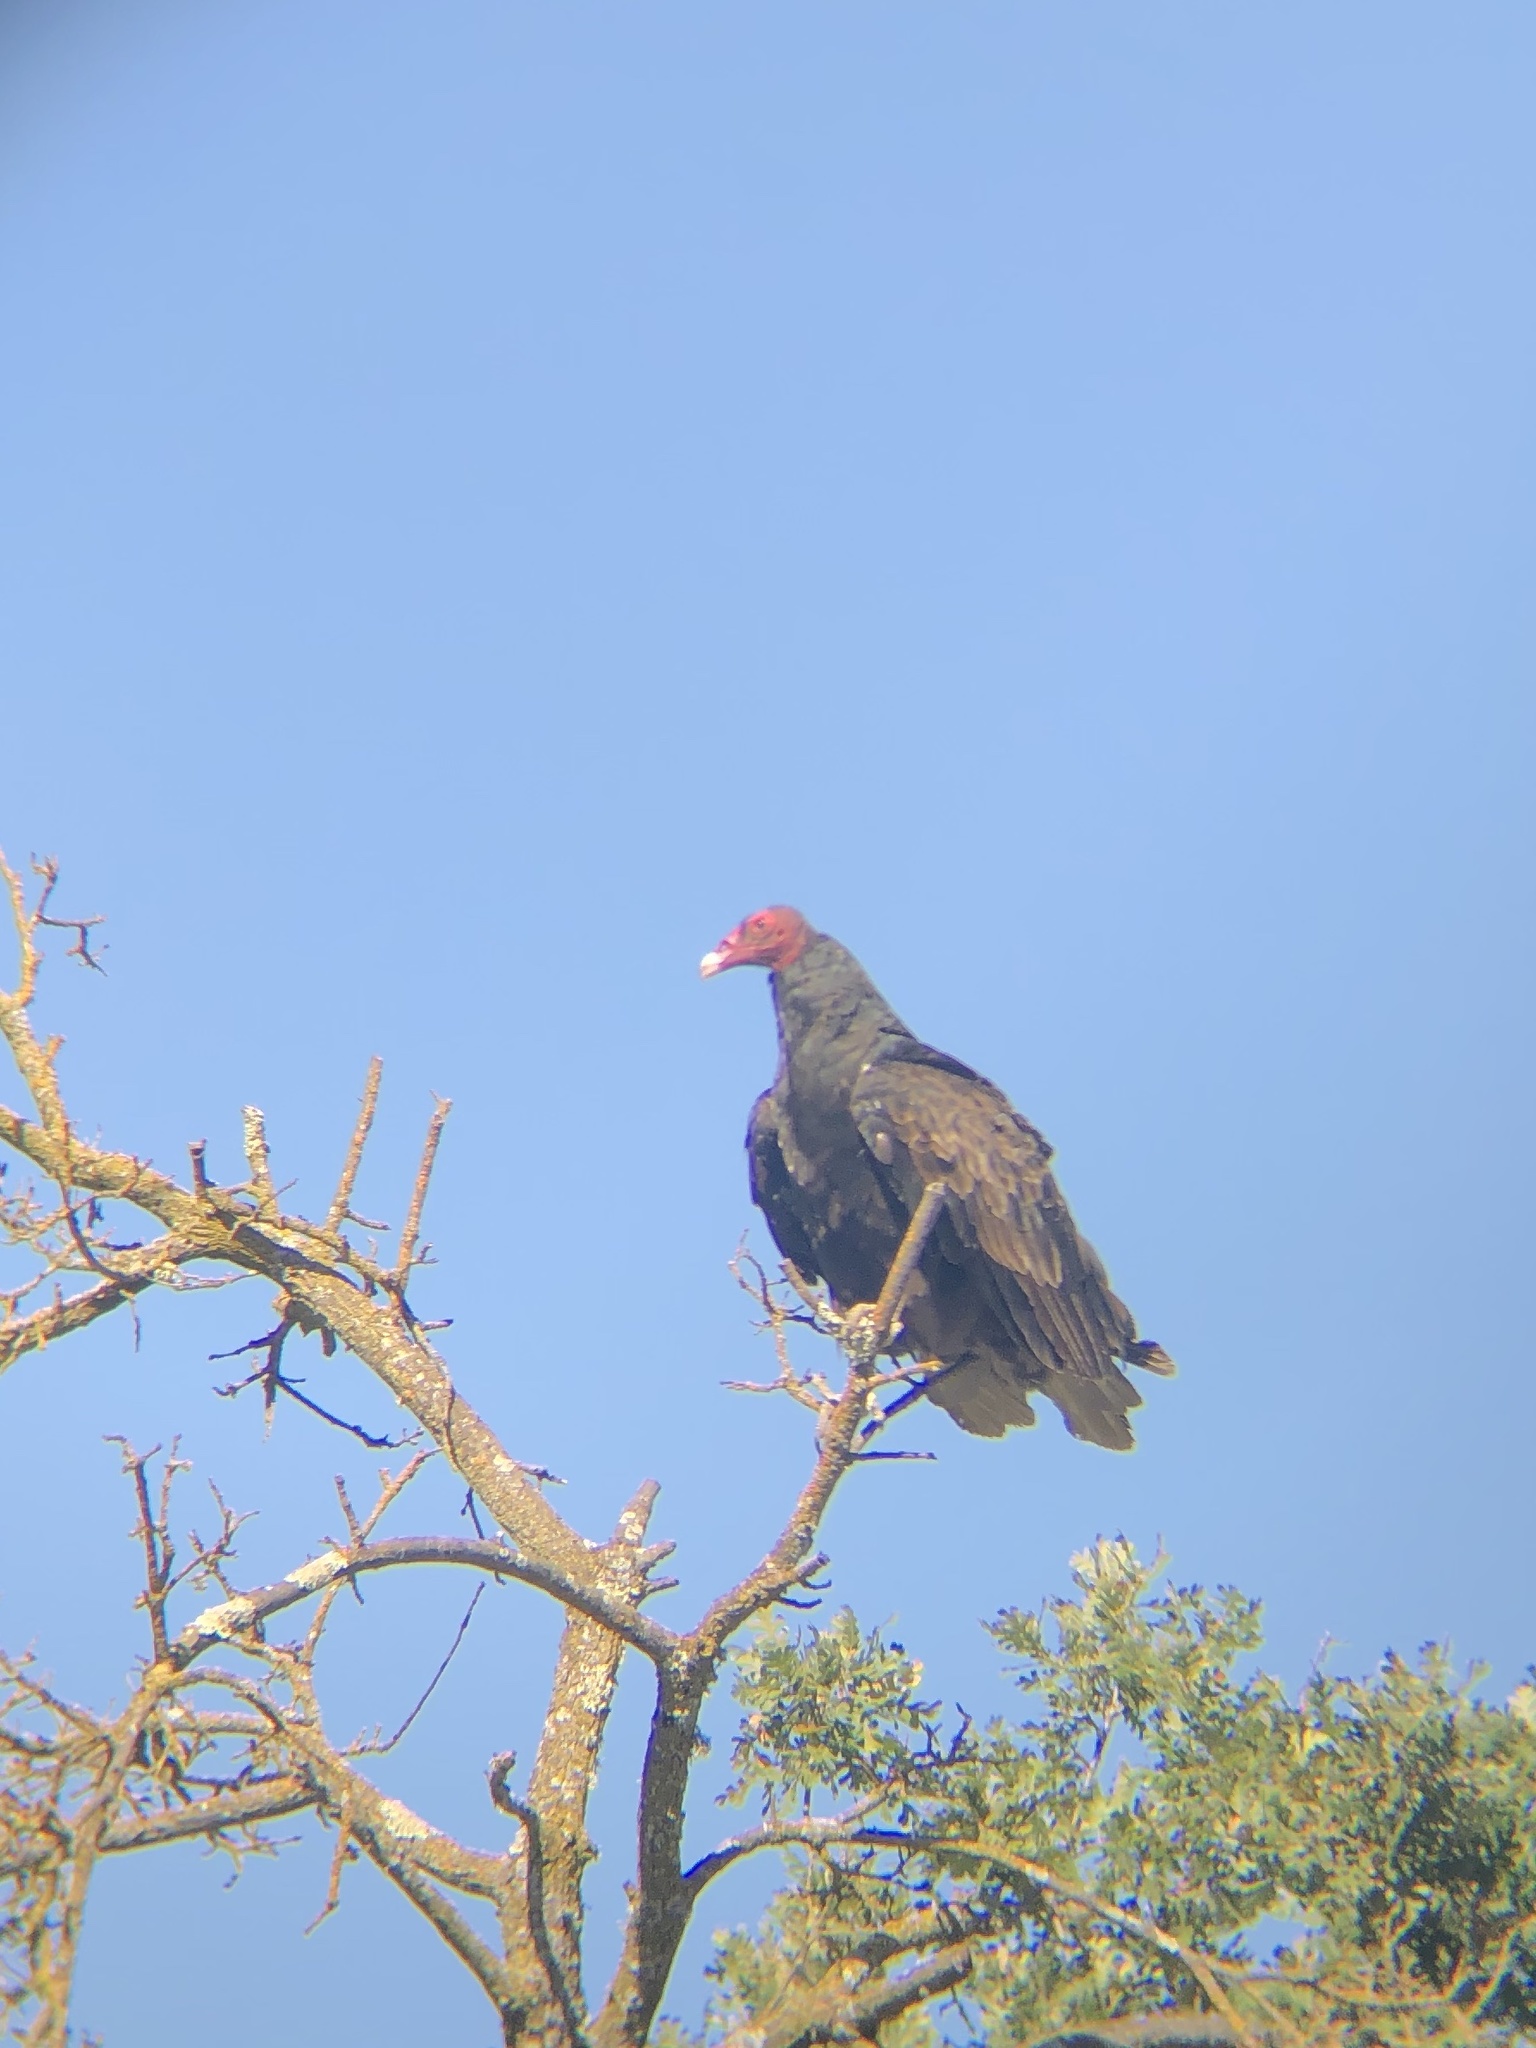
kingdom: Animalia
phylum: Chordata
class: Aves
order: Accipitriformes
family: Cathartidae
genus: Cathartes
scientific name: Cathartes aura
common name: Turkey vulture
